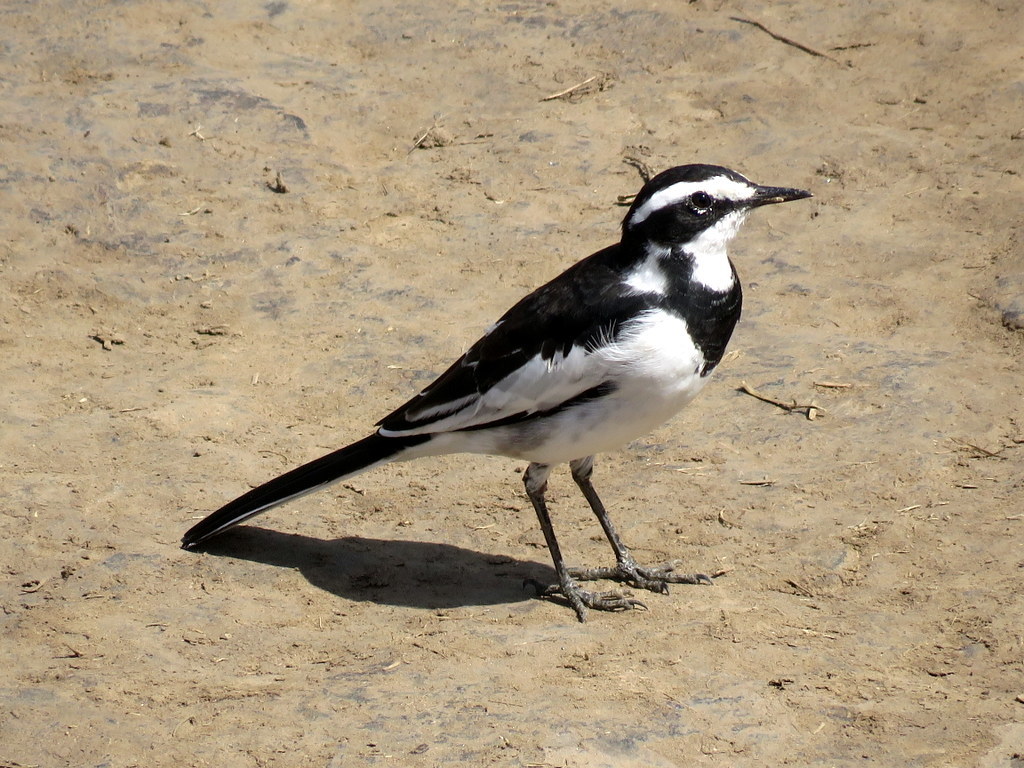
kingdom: Animalia
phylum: Chordata
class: Aves
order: Passeriformes
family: Motacillidae
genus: Motacilla
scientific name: Motacilla aguimp
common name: African pied wagtail
